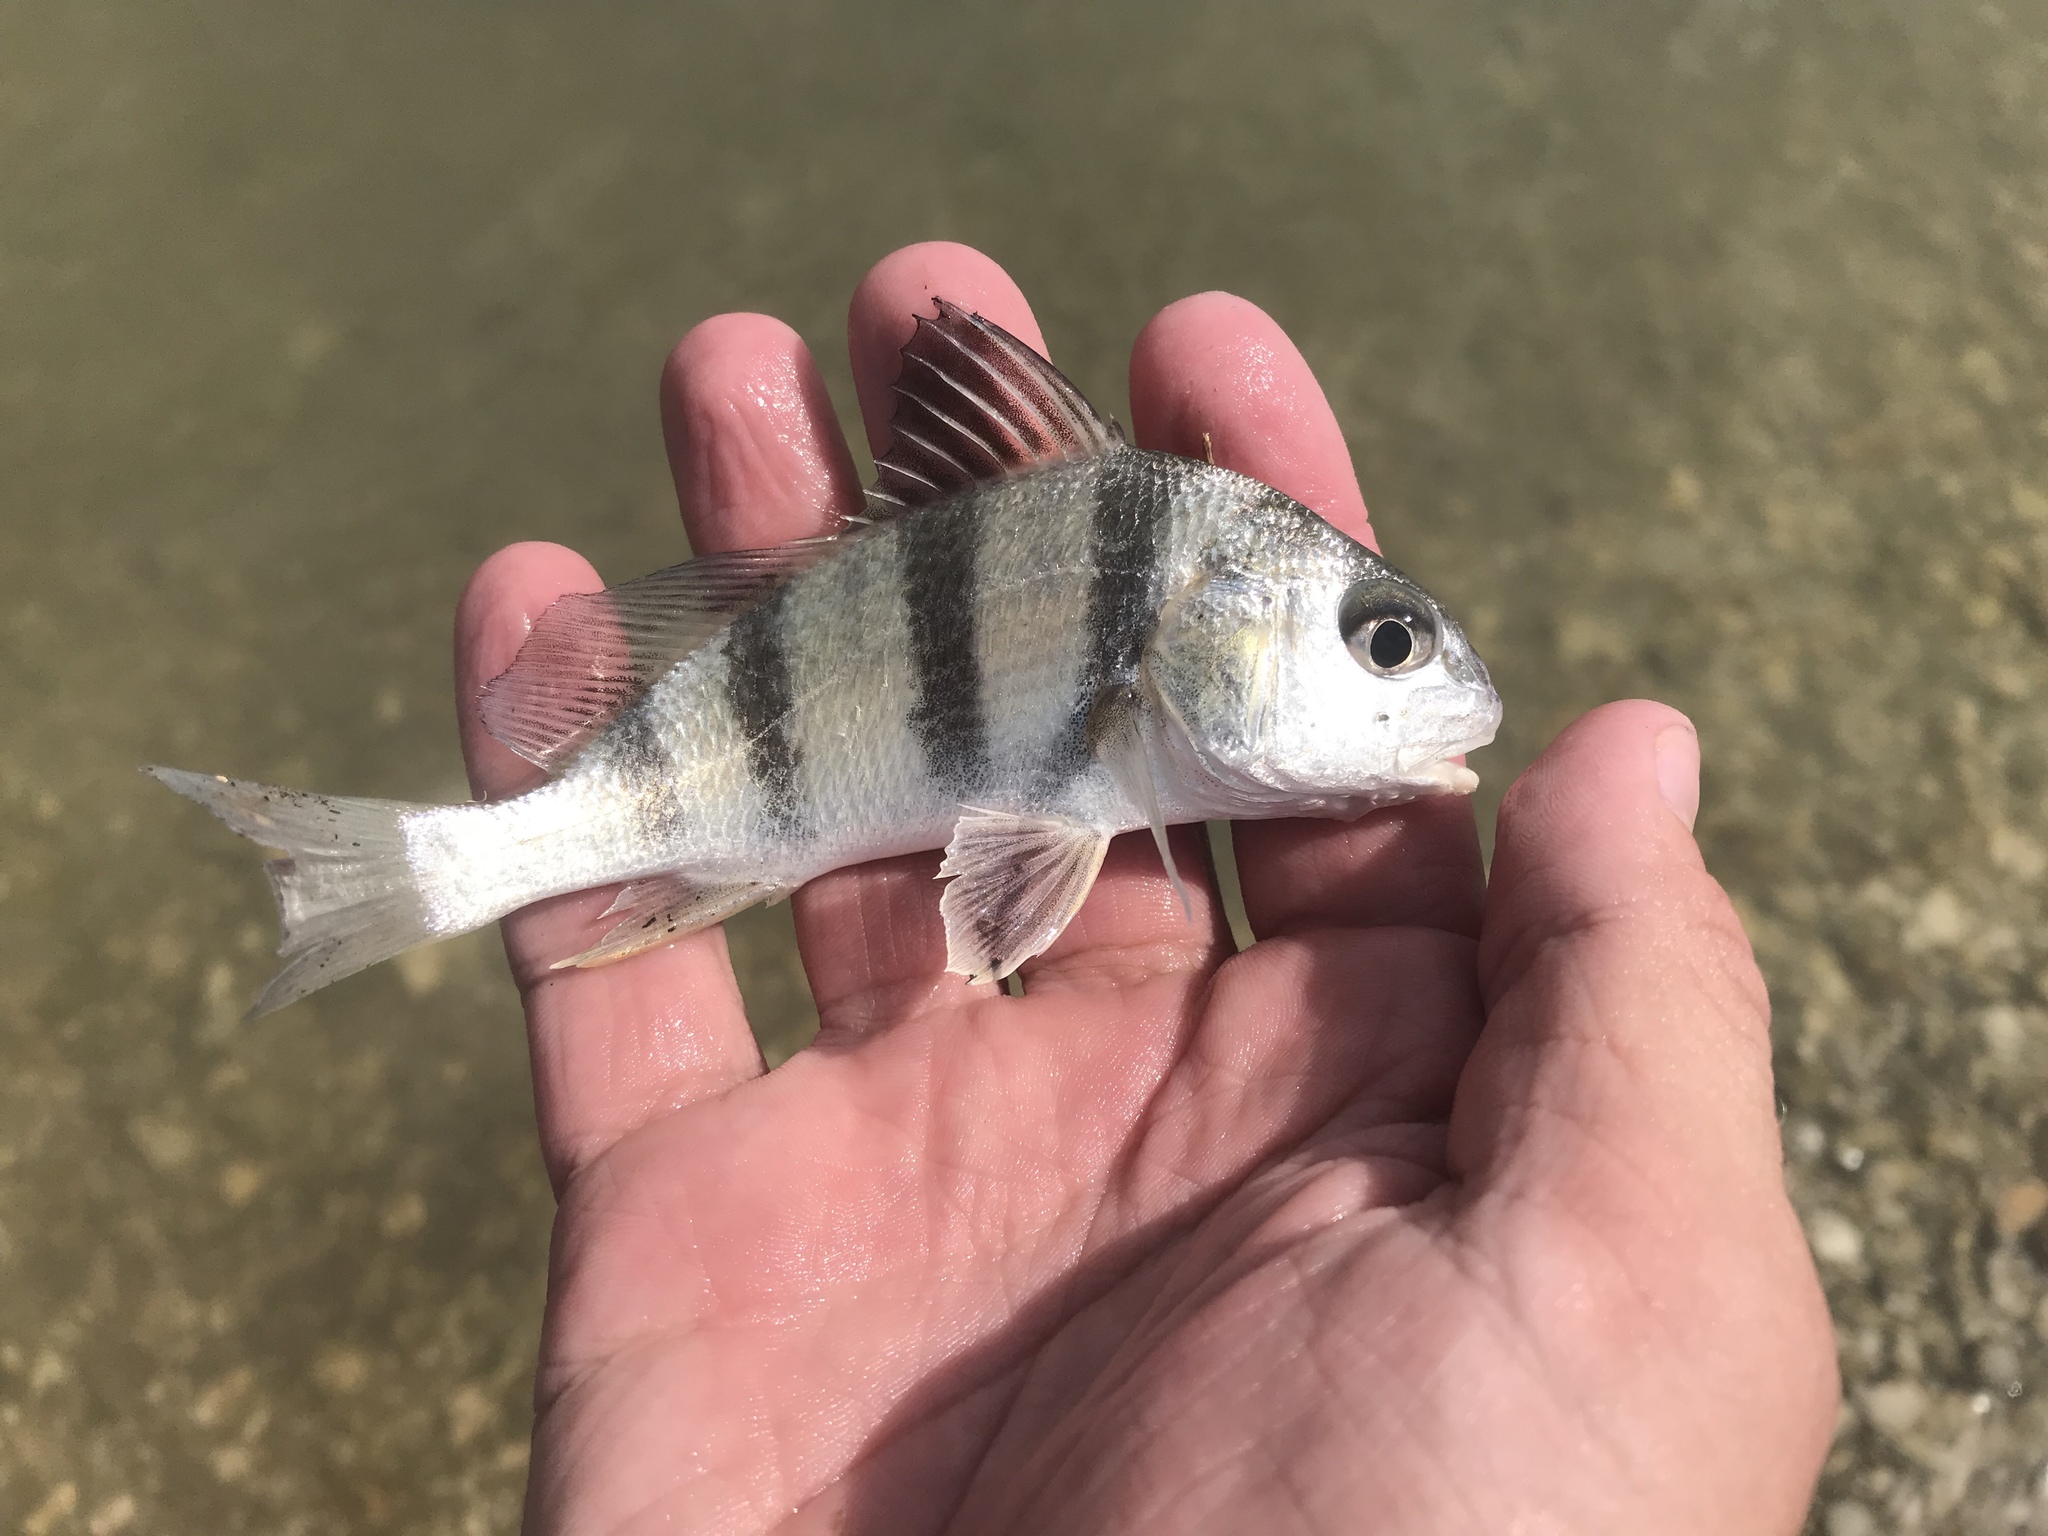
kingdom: Animalia
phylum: Chordata
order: Perciformes
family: Sciaenidae
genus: Pogonias
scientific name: Pogonias cromis
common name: Black drum
